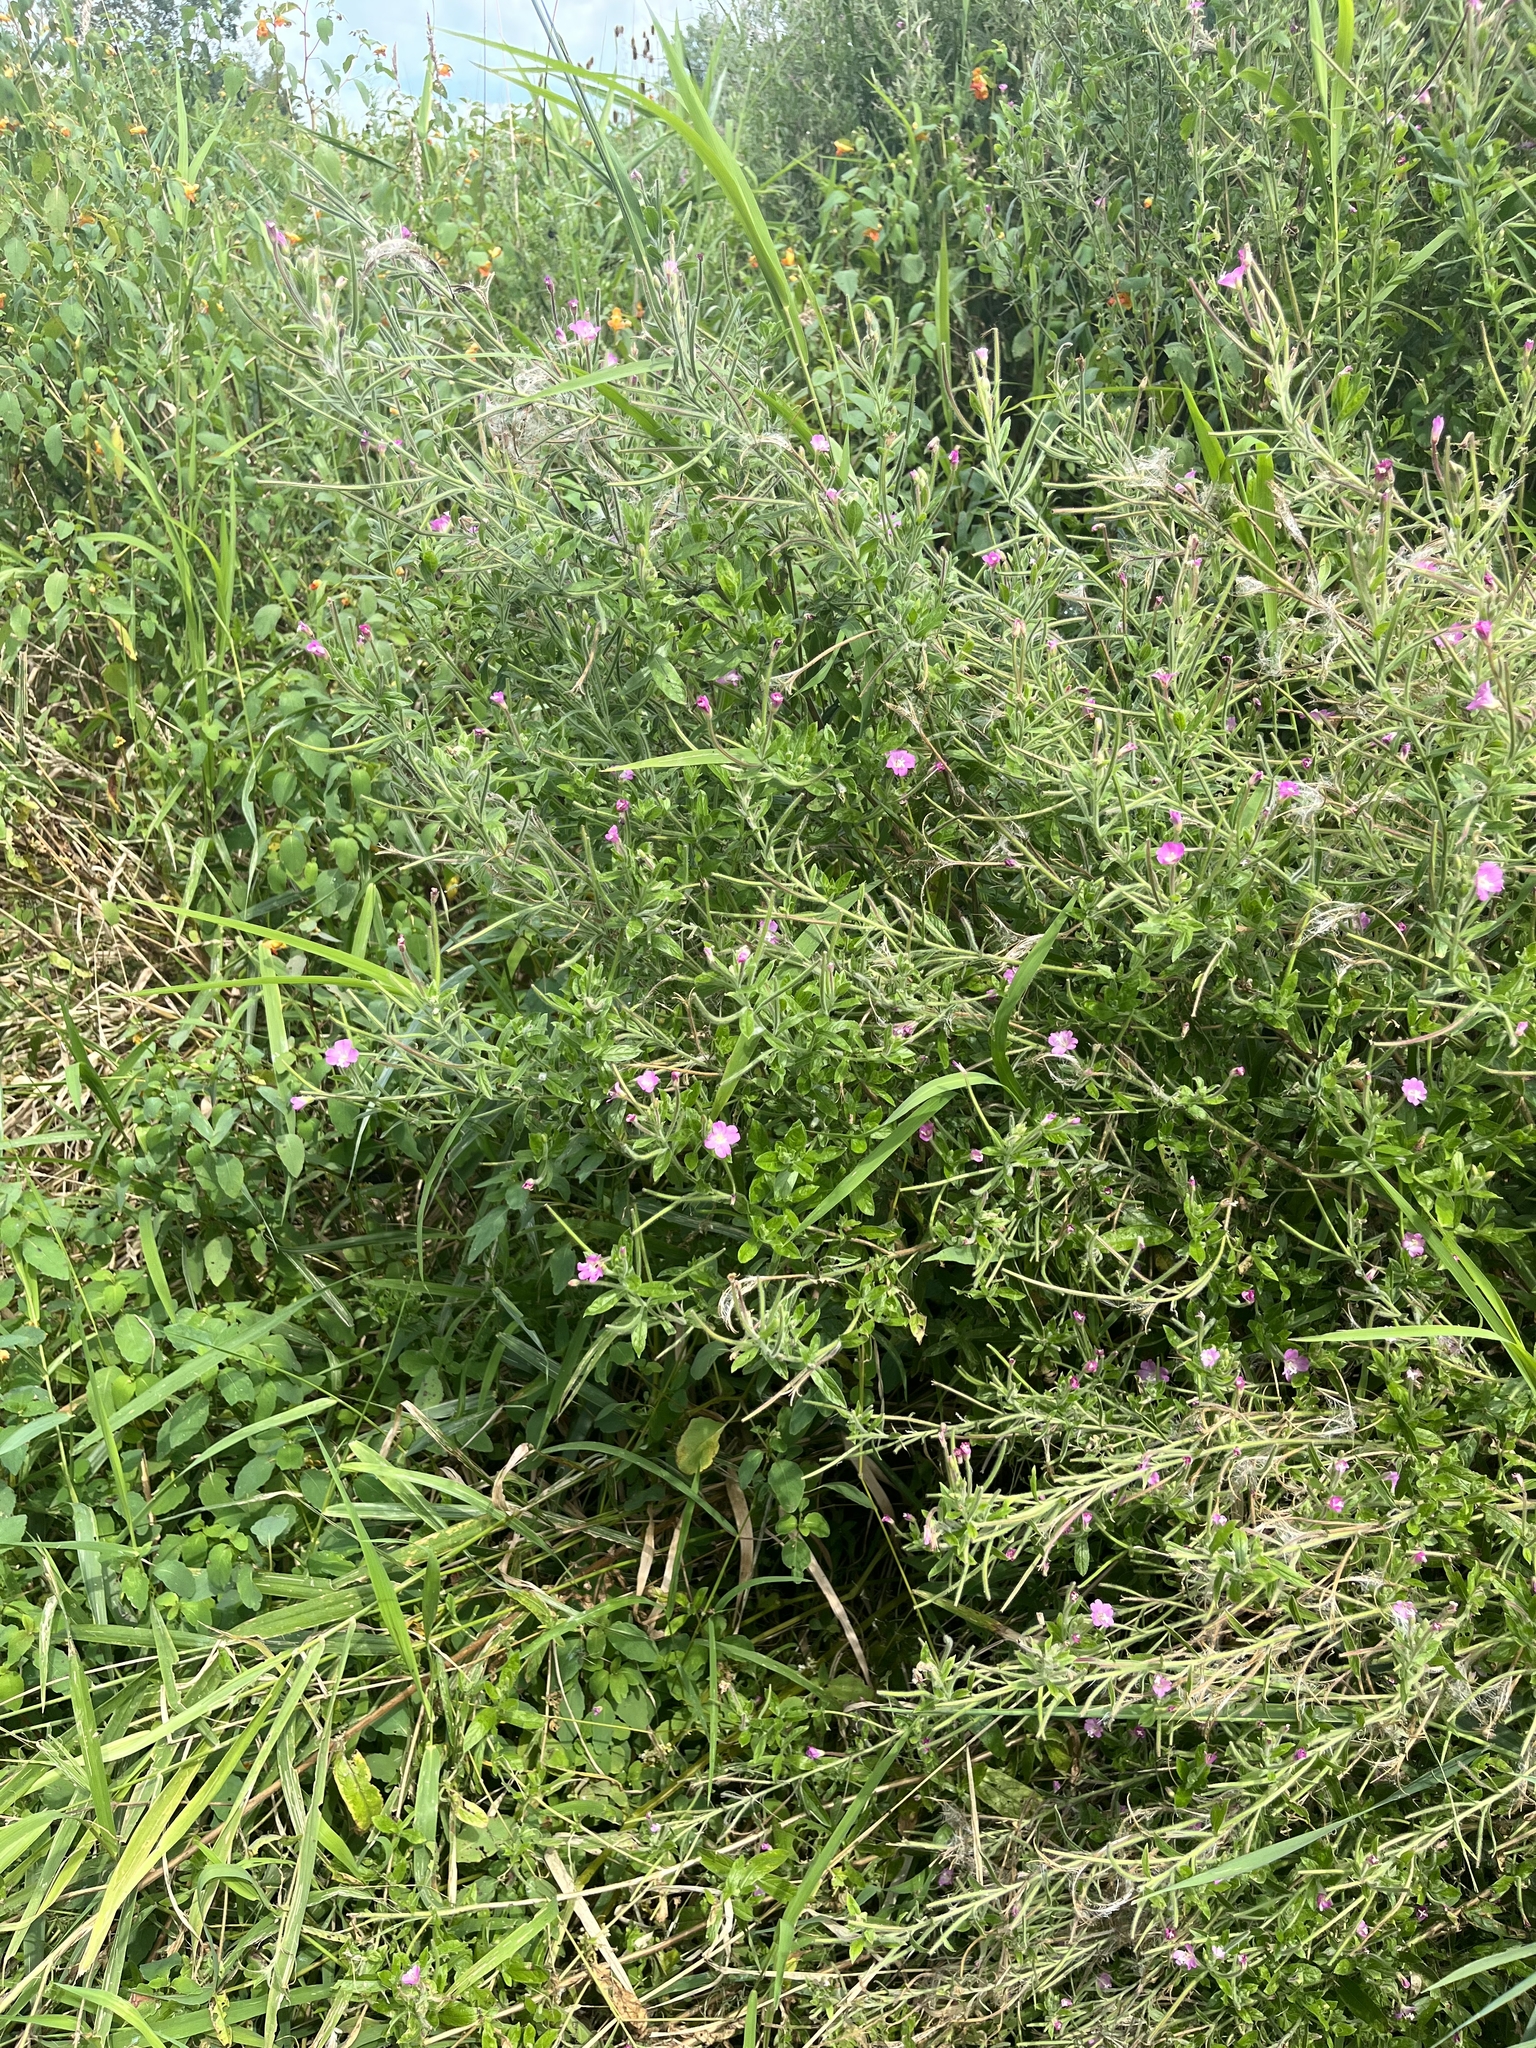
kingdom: Plantae
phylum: Tracheophyta
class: Magnoliopsida
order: Myrtales
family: Onagraceae
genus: Epilobium
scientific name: Epilobium hirsutum
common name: Great willowherb
